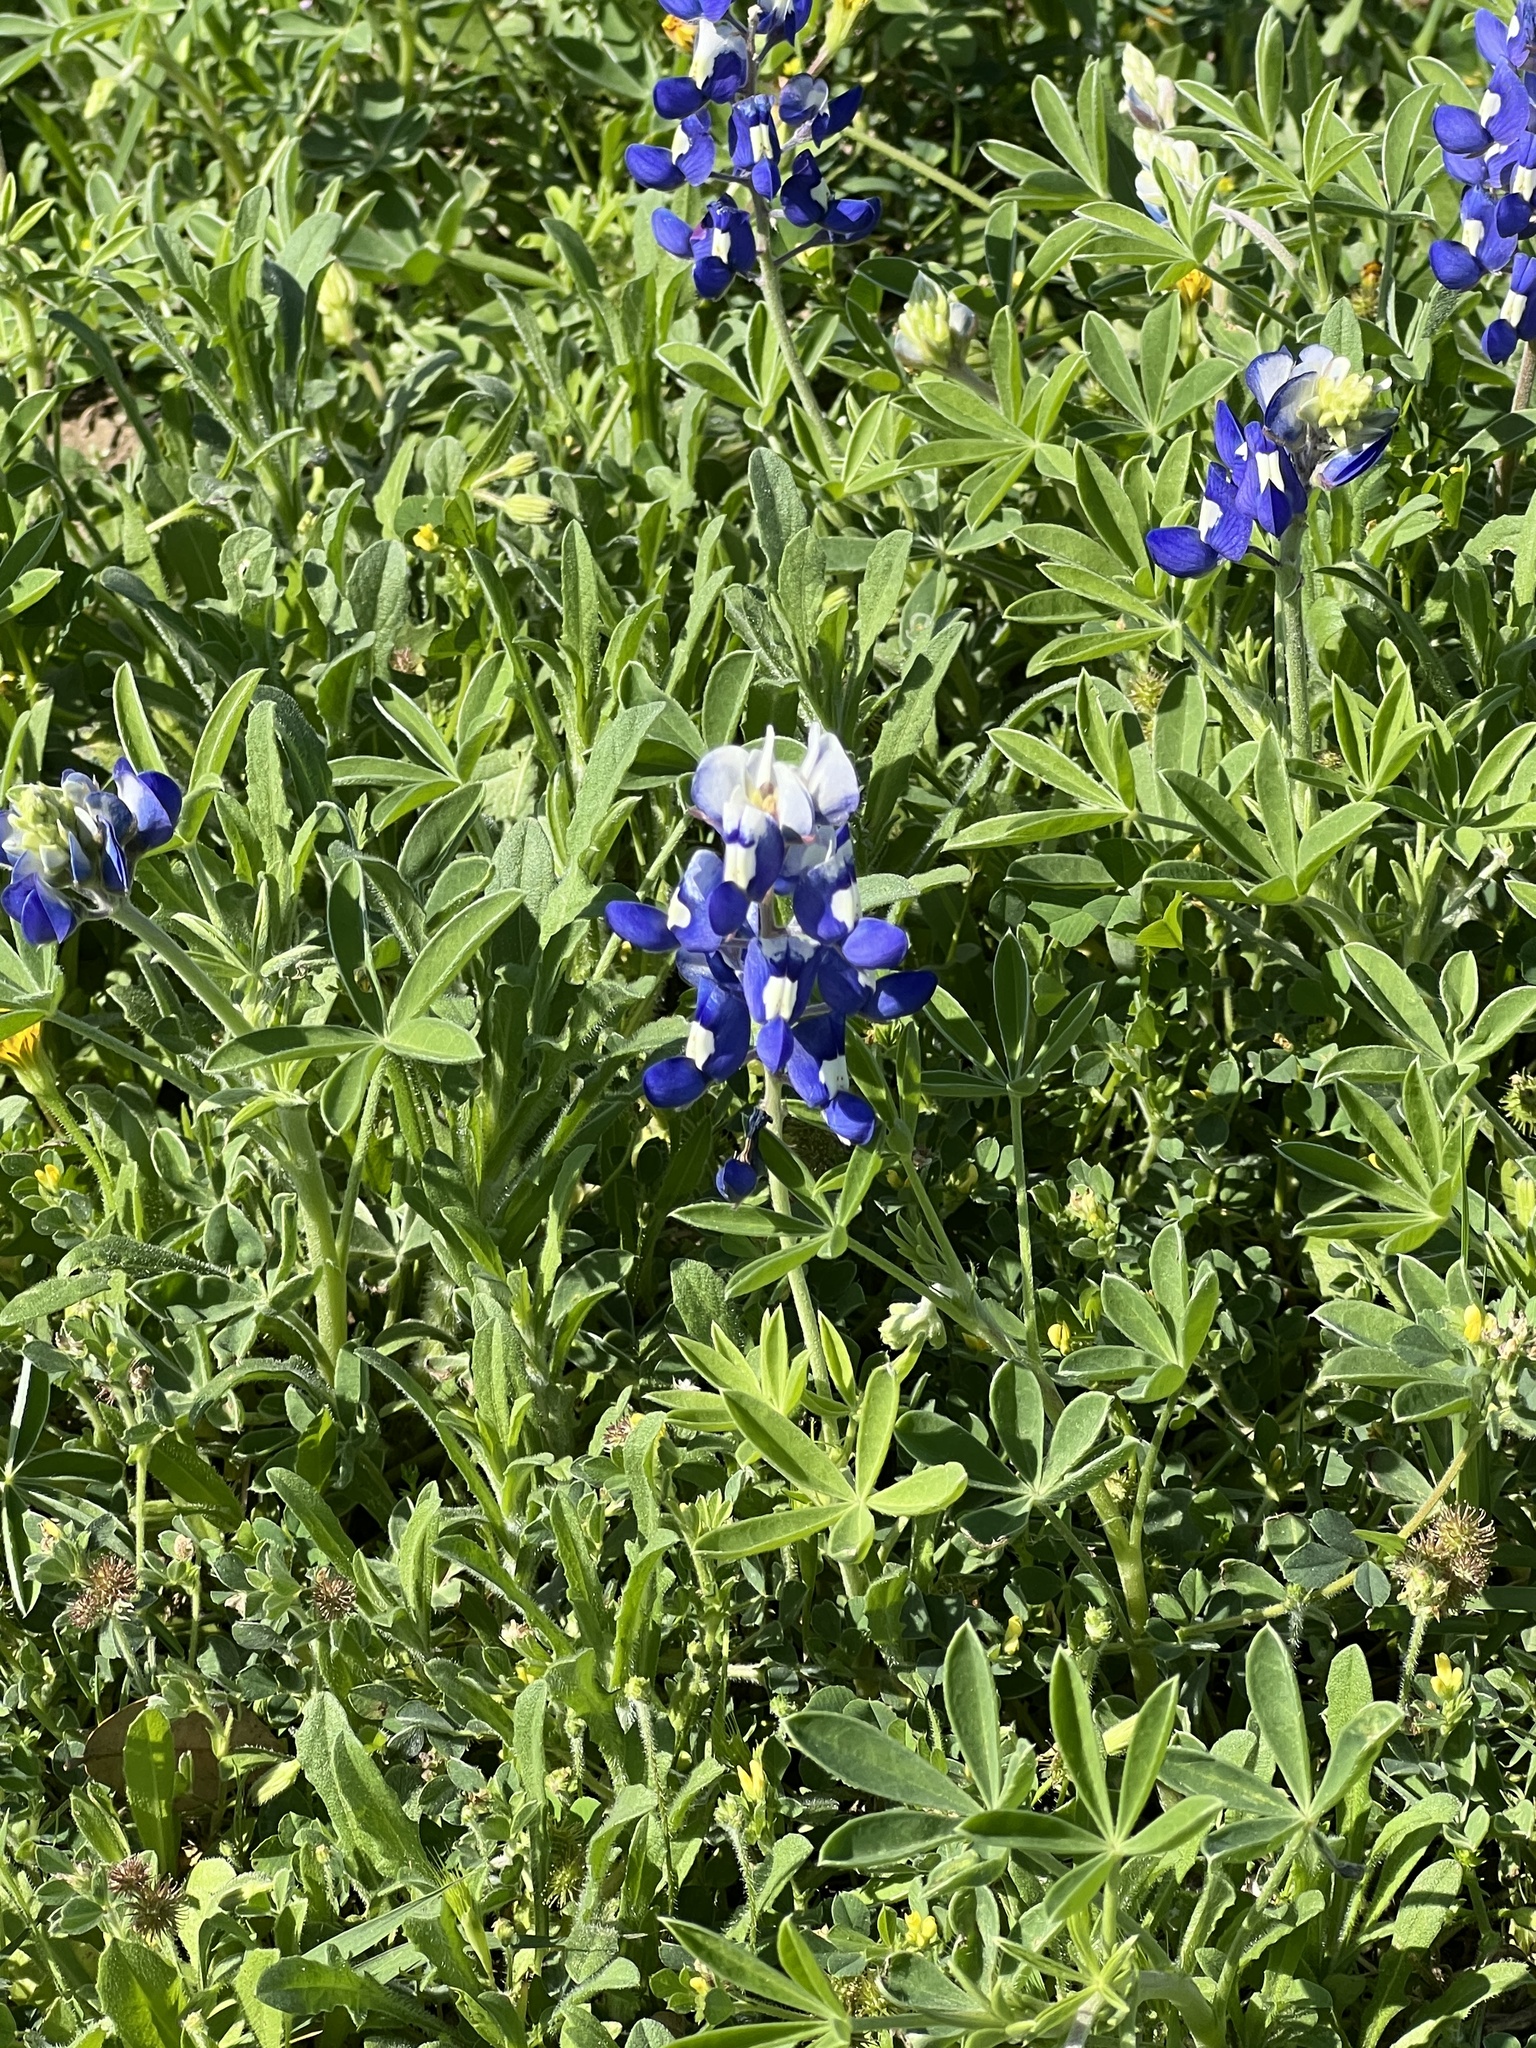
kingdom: Plantae
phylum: Tracheophyta
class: Magnoliopsida
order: Fabales
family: Fabaceae
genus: Lupinus
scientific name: Lupinus texensis
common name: Texas bluebonnet
